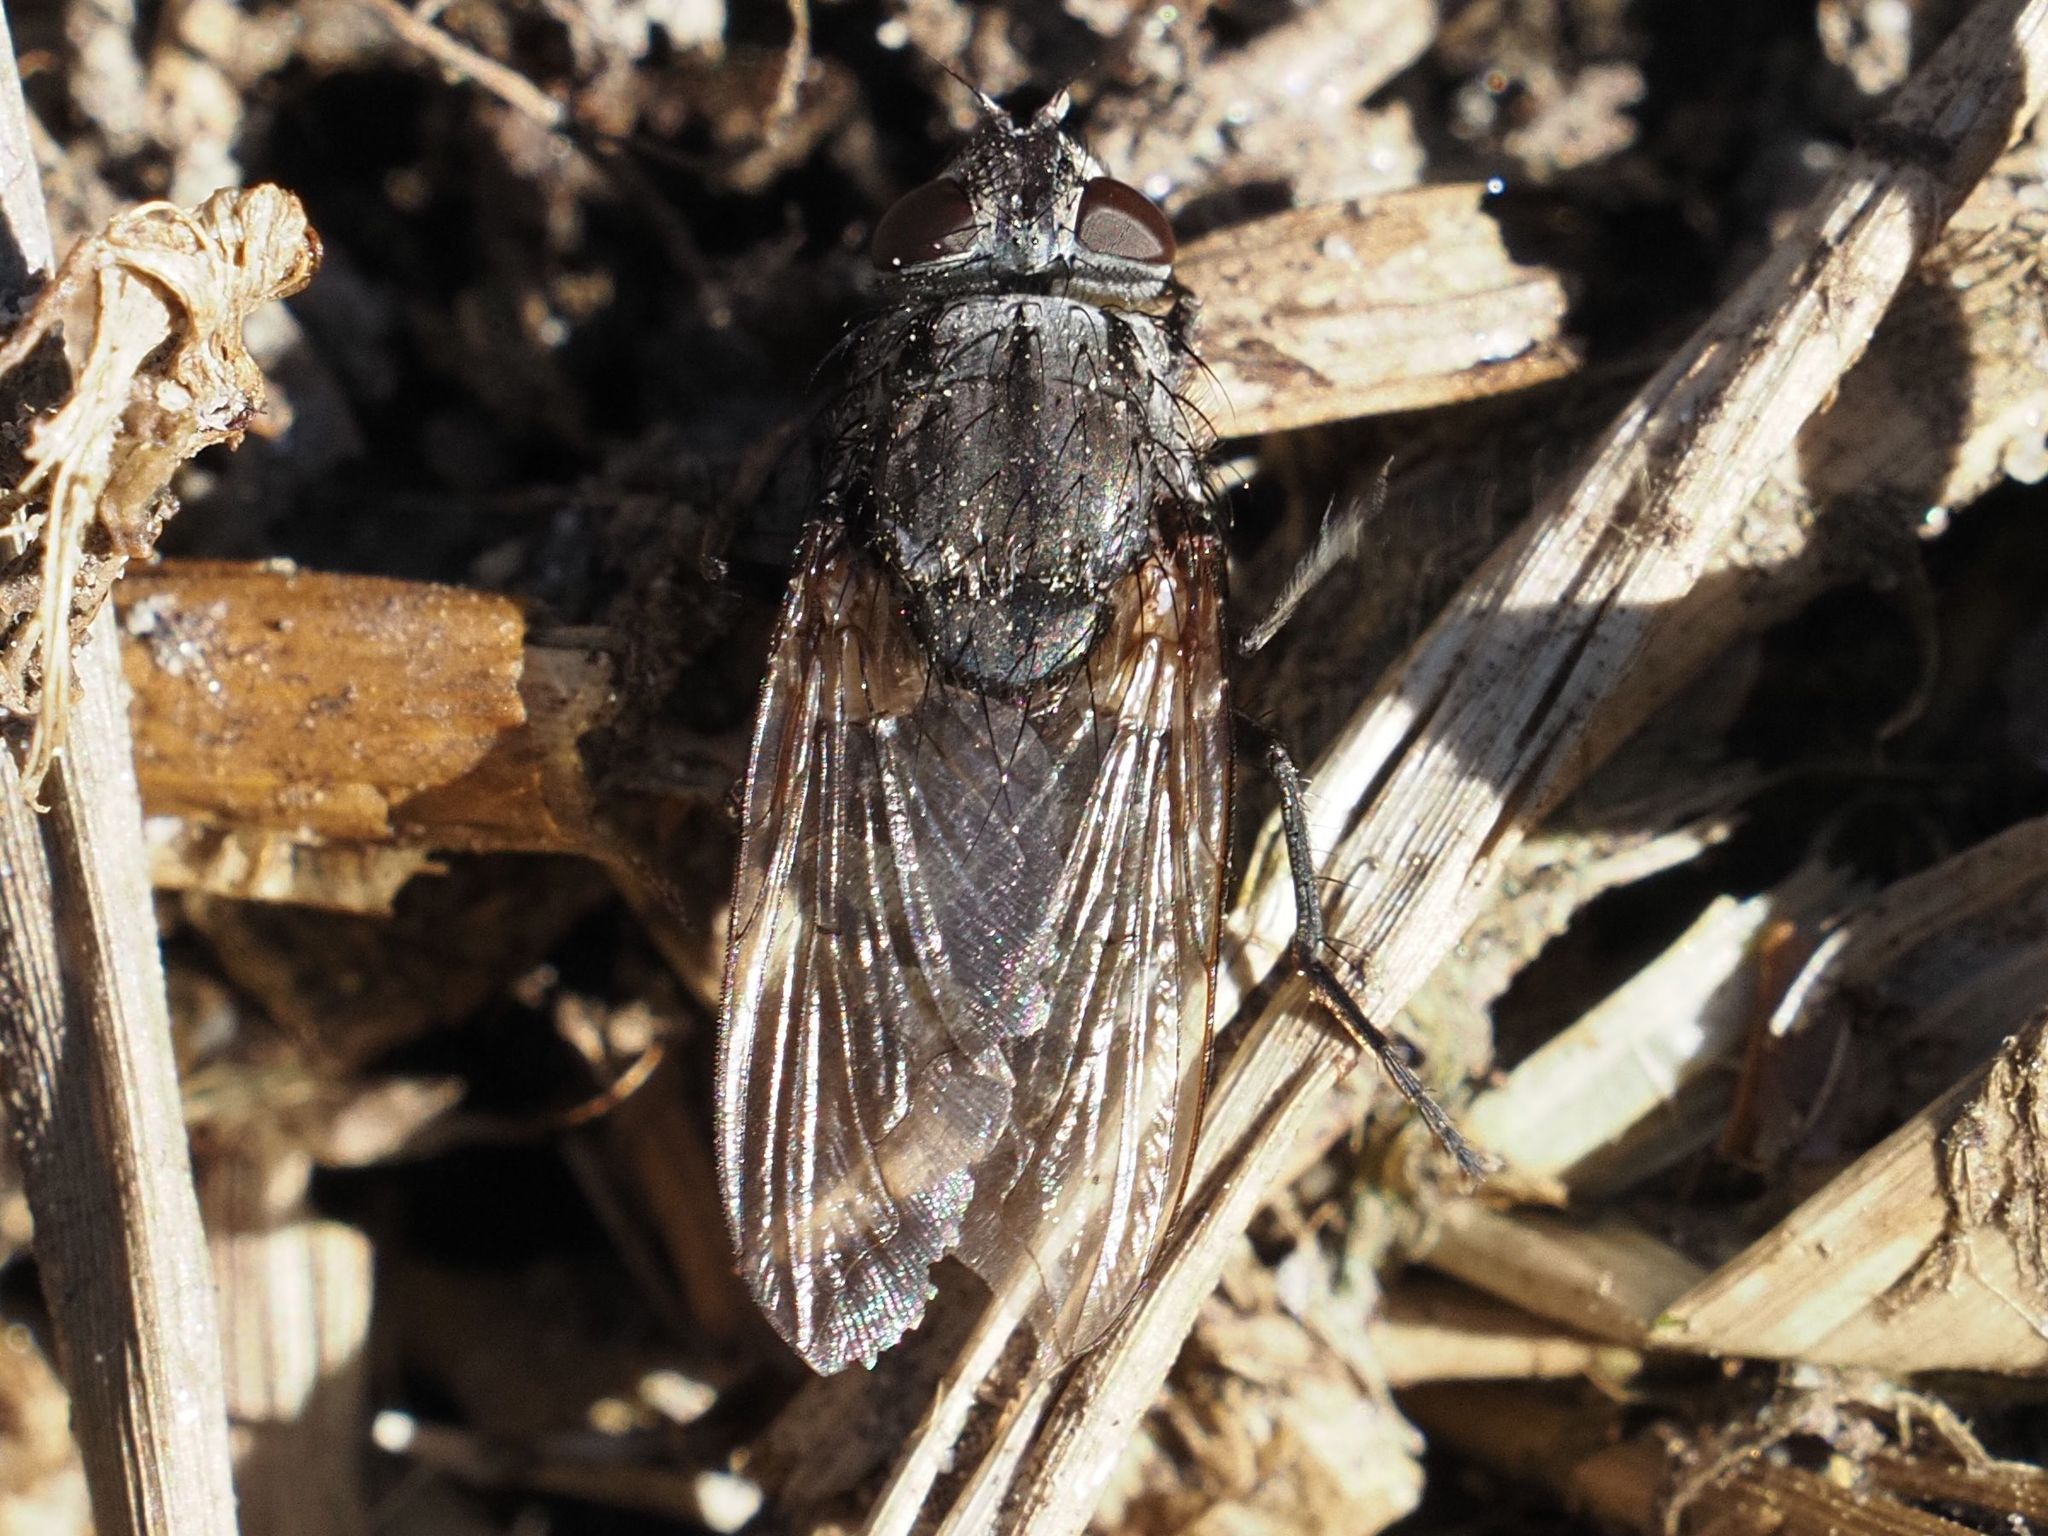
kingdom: Animalia
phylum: Arthropoda
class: Insecta
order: Diptera
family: Polleniidae
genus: Pollenia
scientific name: Pollenia vagabunda
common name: Vagabund cluster fly
